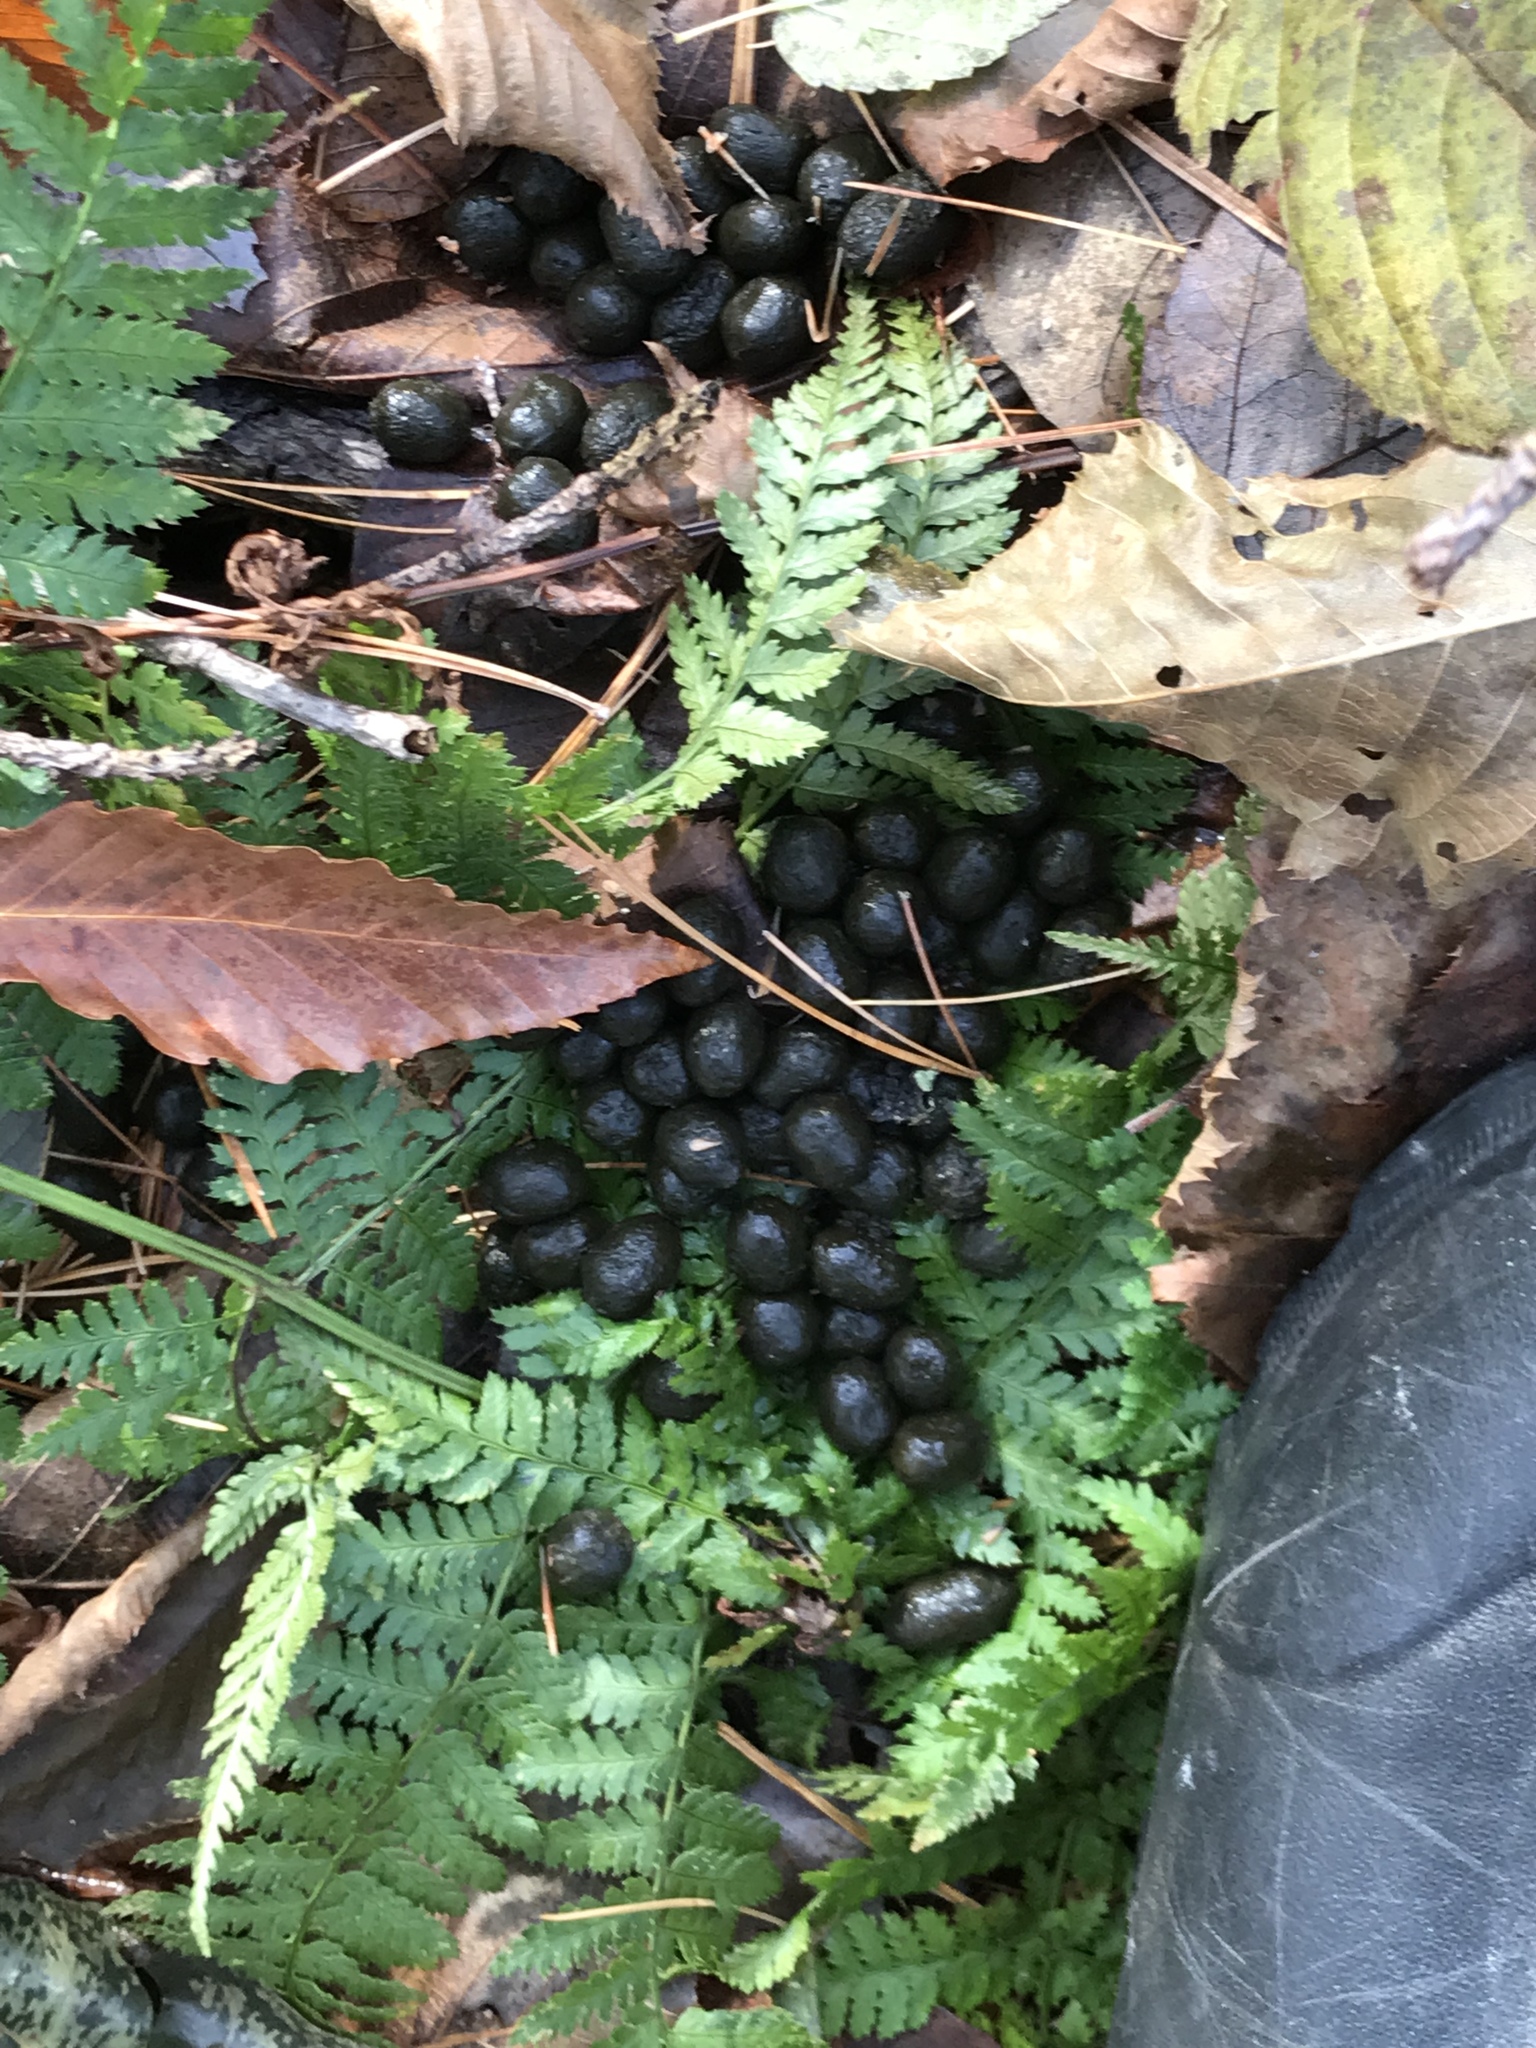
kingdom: Animalia
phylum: Chordata
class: Mammalia
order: Artiodactyla
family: Cervidae
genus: Odocoileus
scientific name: Odocoileus virginianus
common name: White-tailed deer
